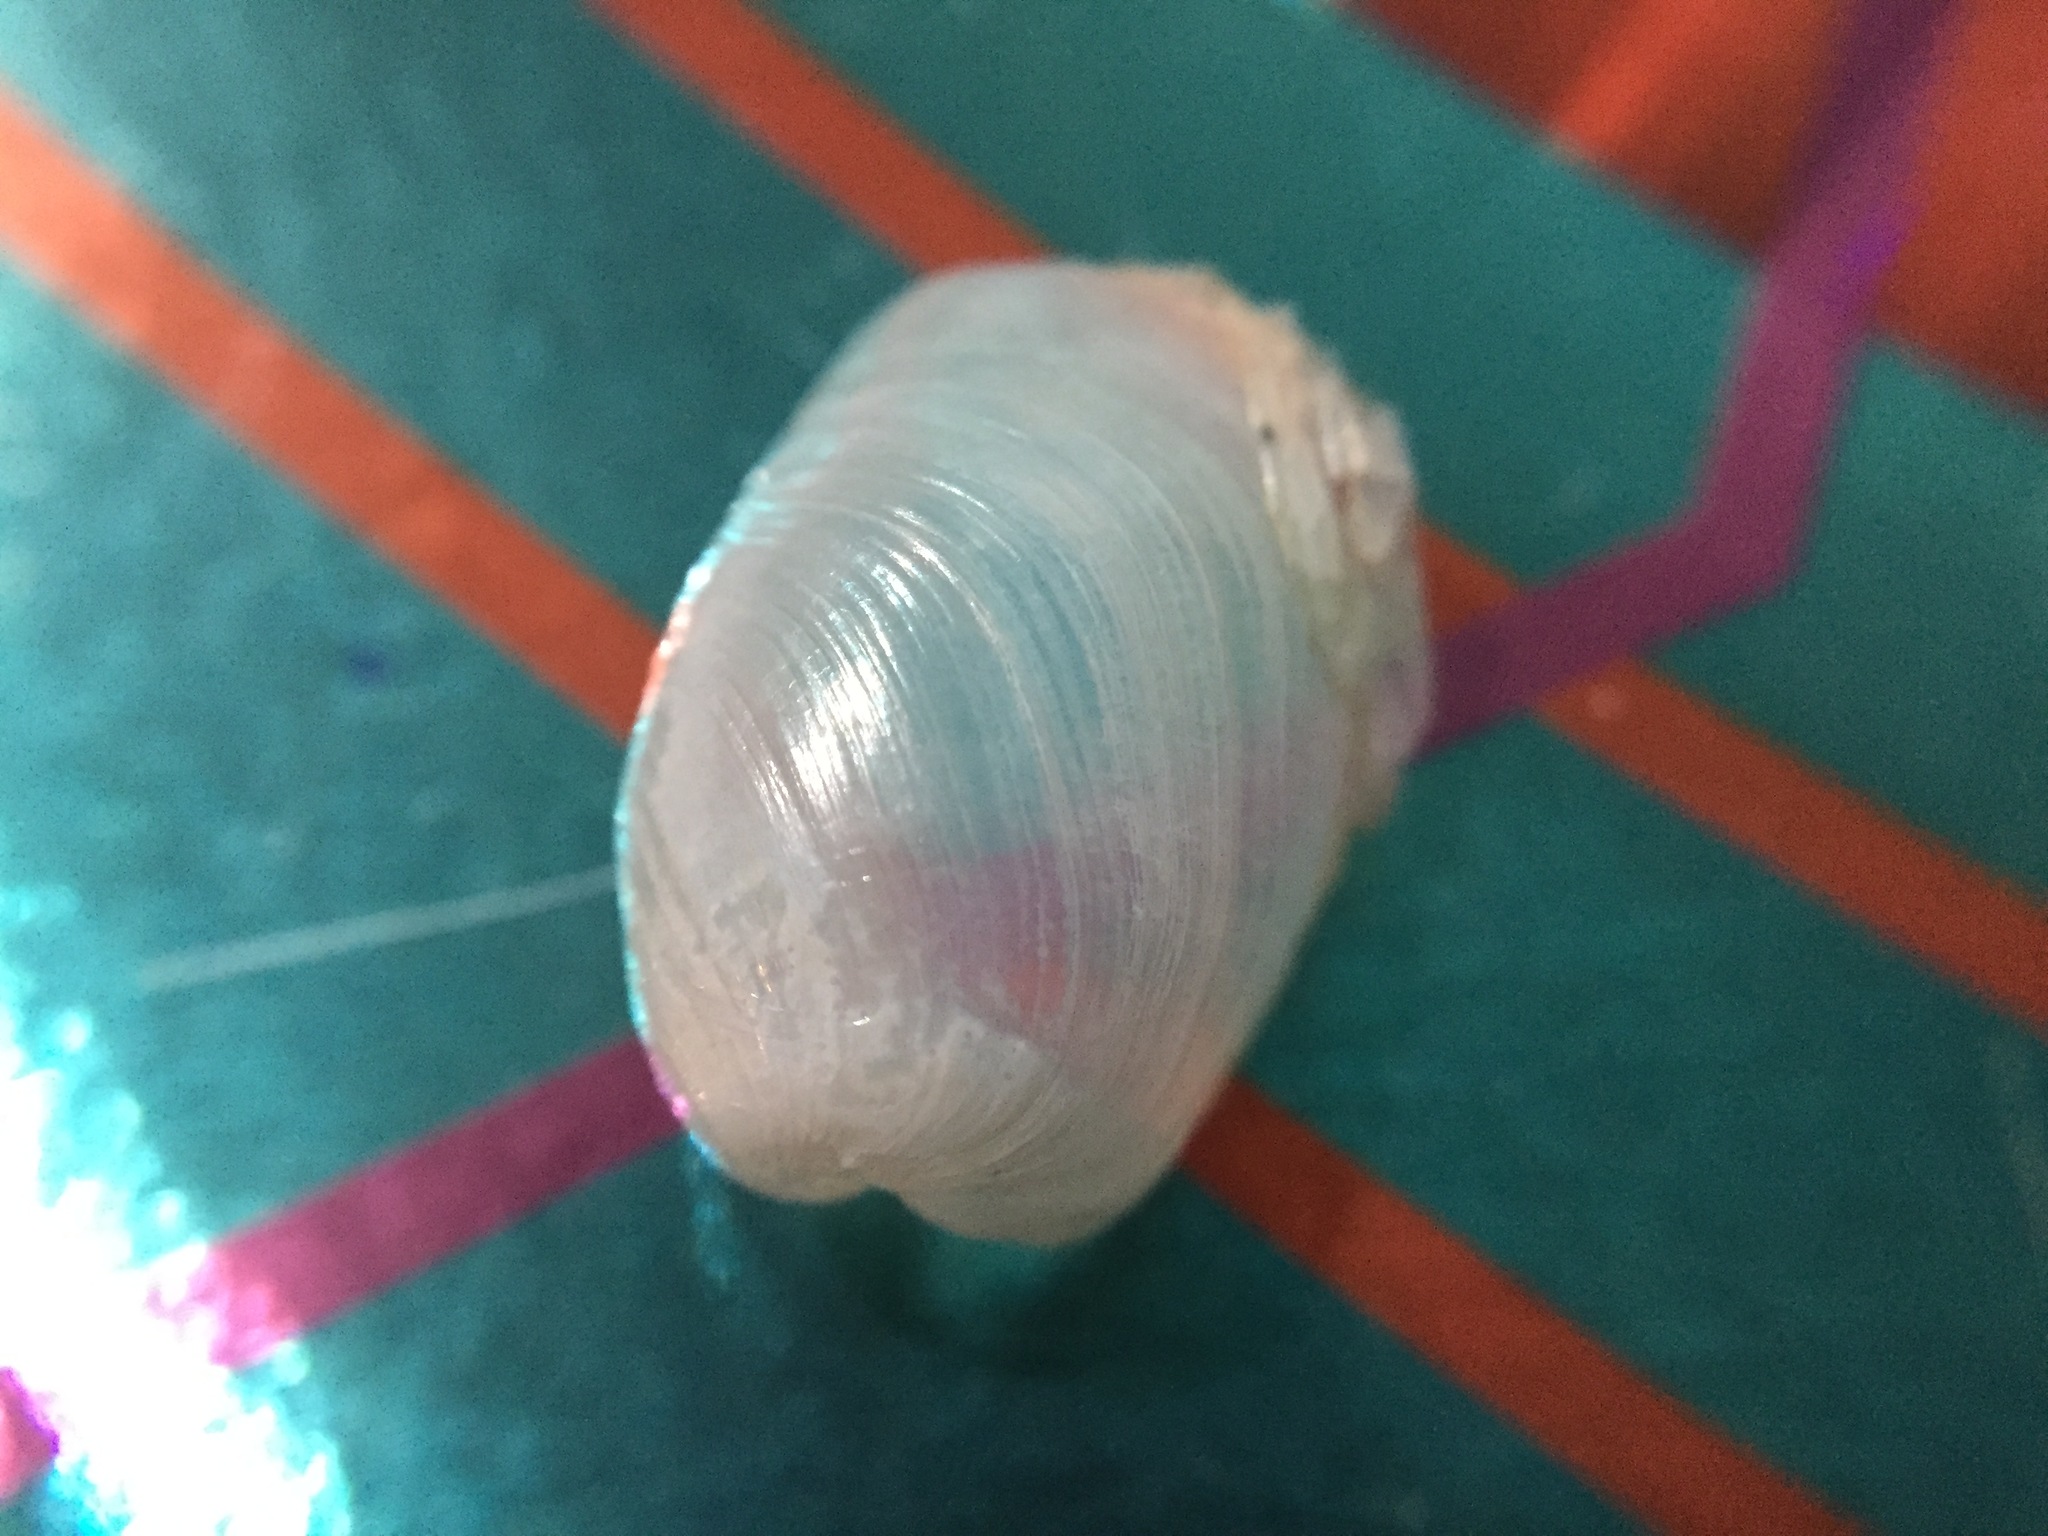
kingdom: Animalia
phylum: Mollusca
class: Gastropoda
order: Cephalaspidea
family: Philinidae
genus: Philine
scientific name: Philine angasi
